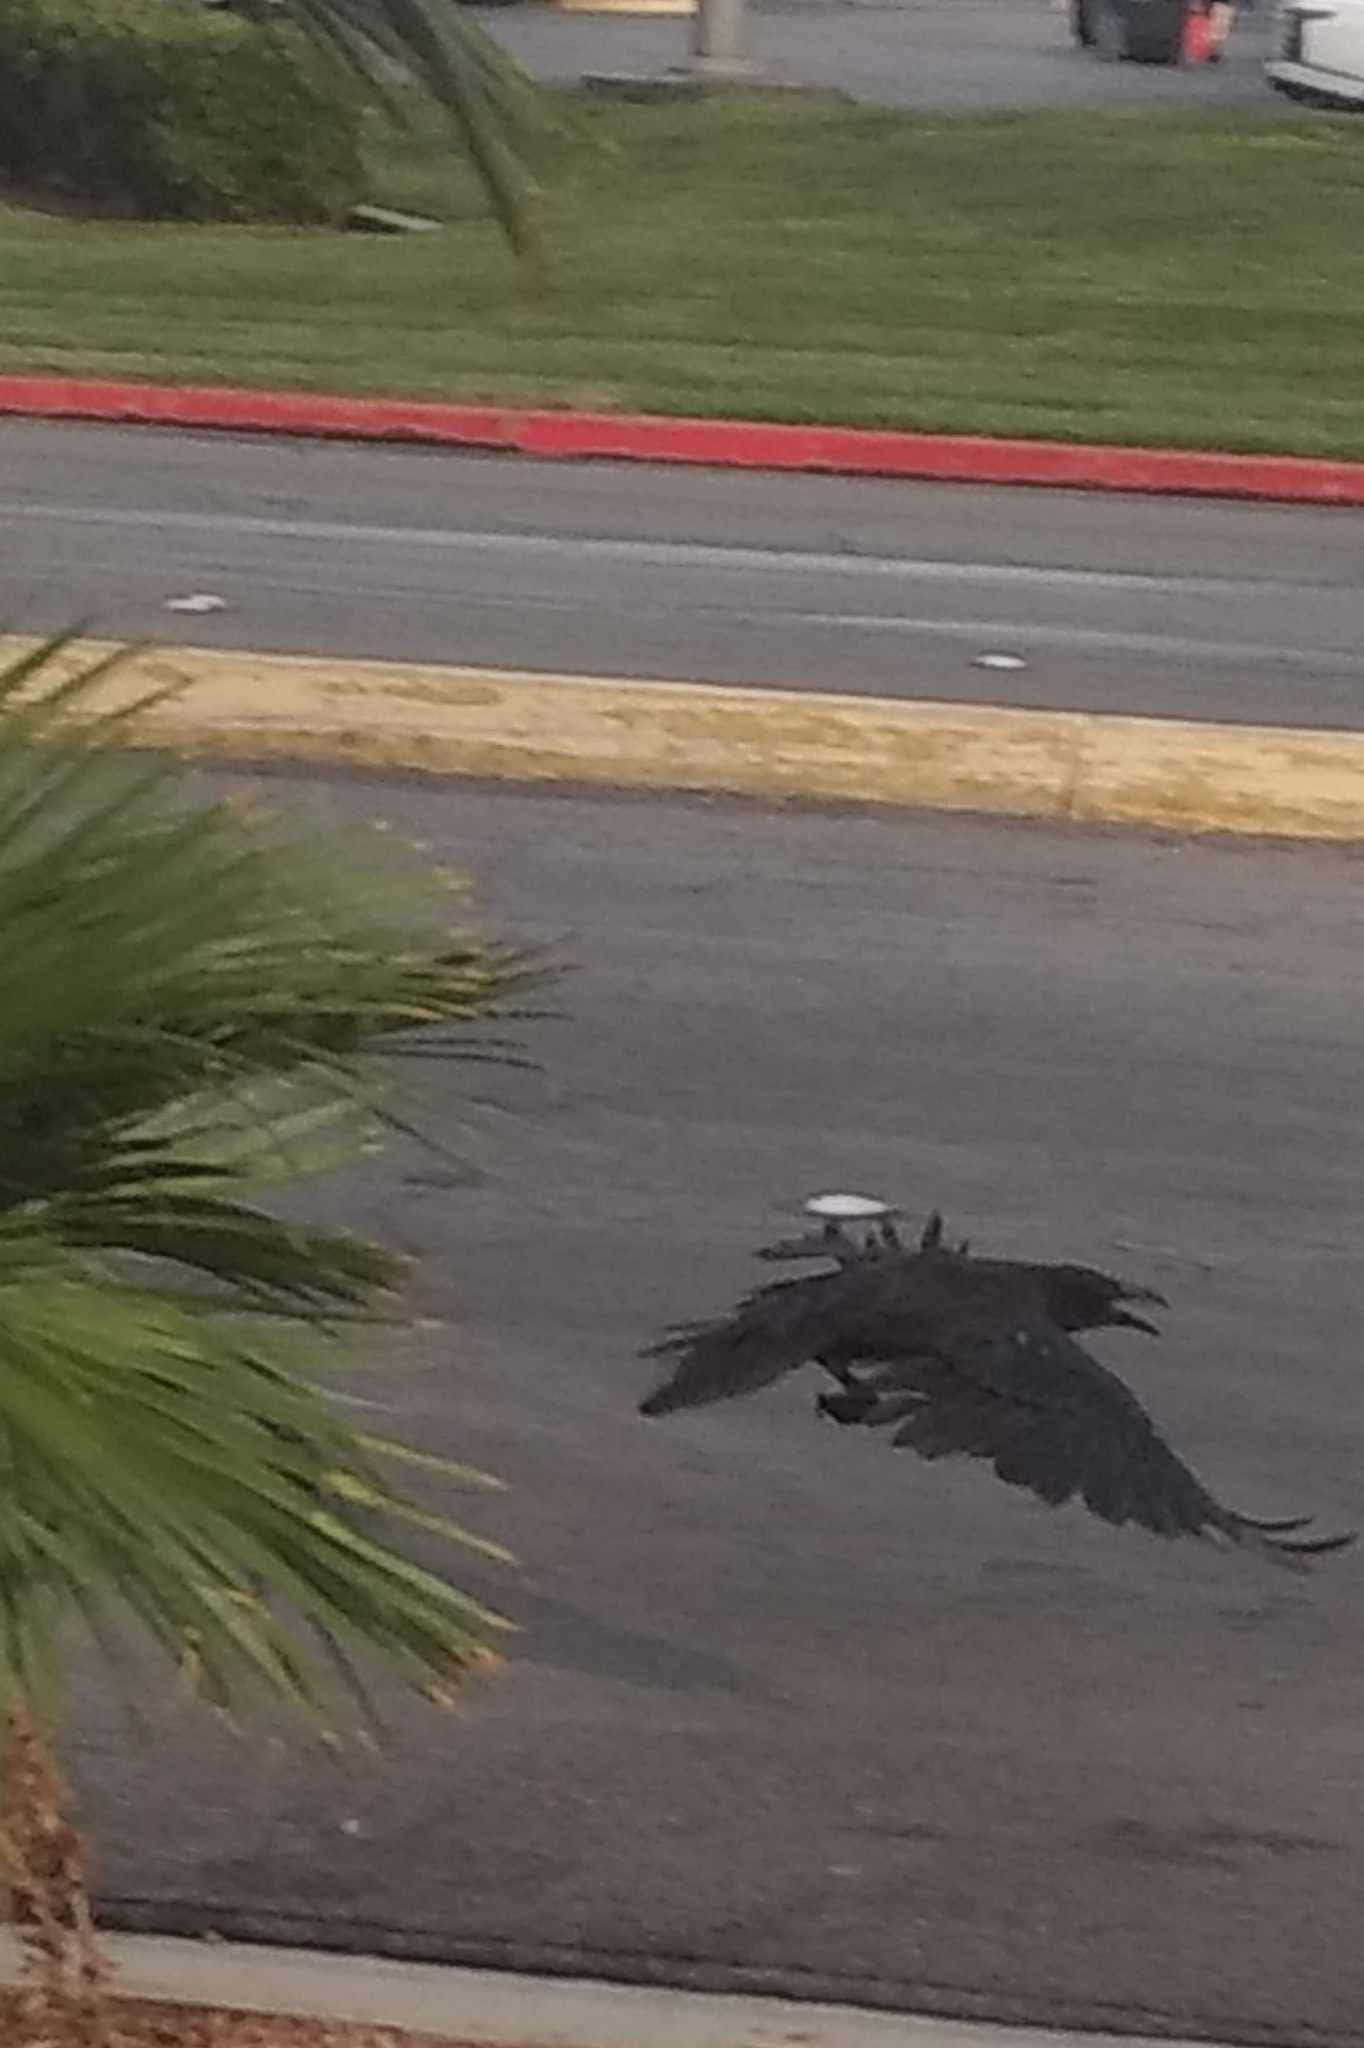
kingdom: Animalia
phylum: Chordata
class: Aves
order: Passeriformes
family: Corvidae
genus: Corvus
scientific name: Corvus corax
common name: Common raven
